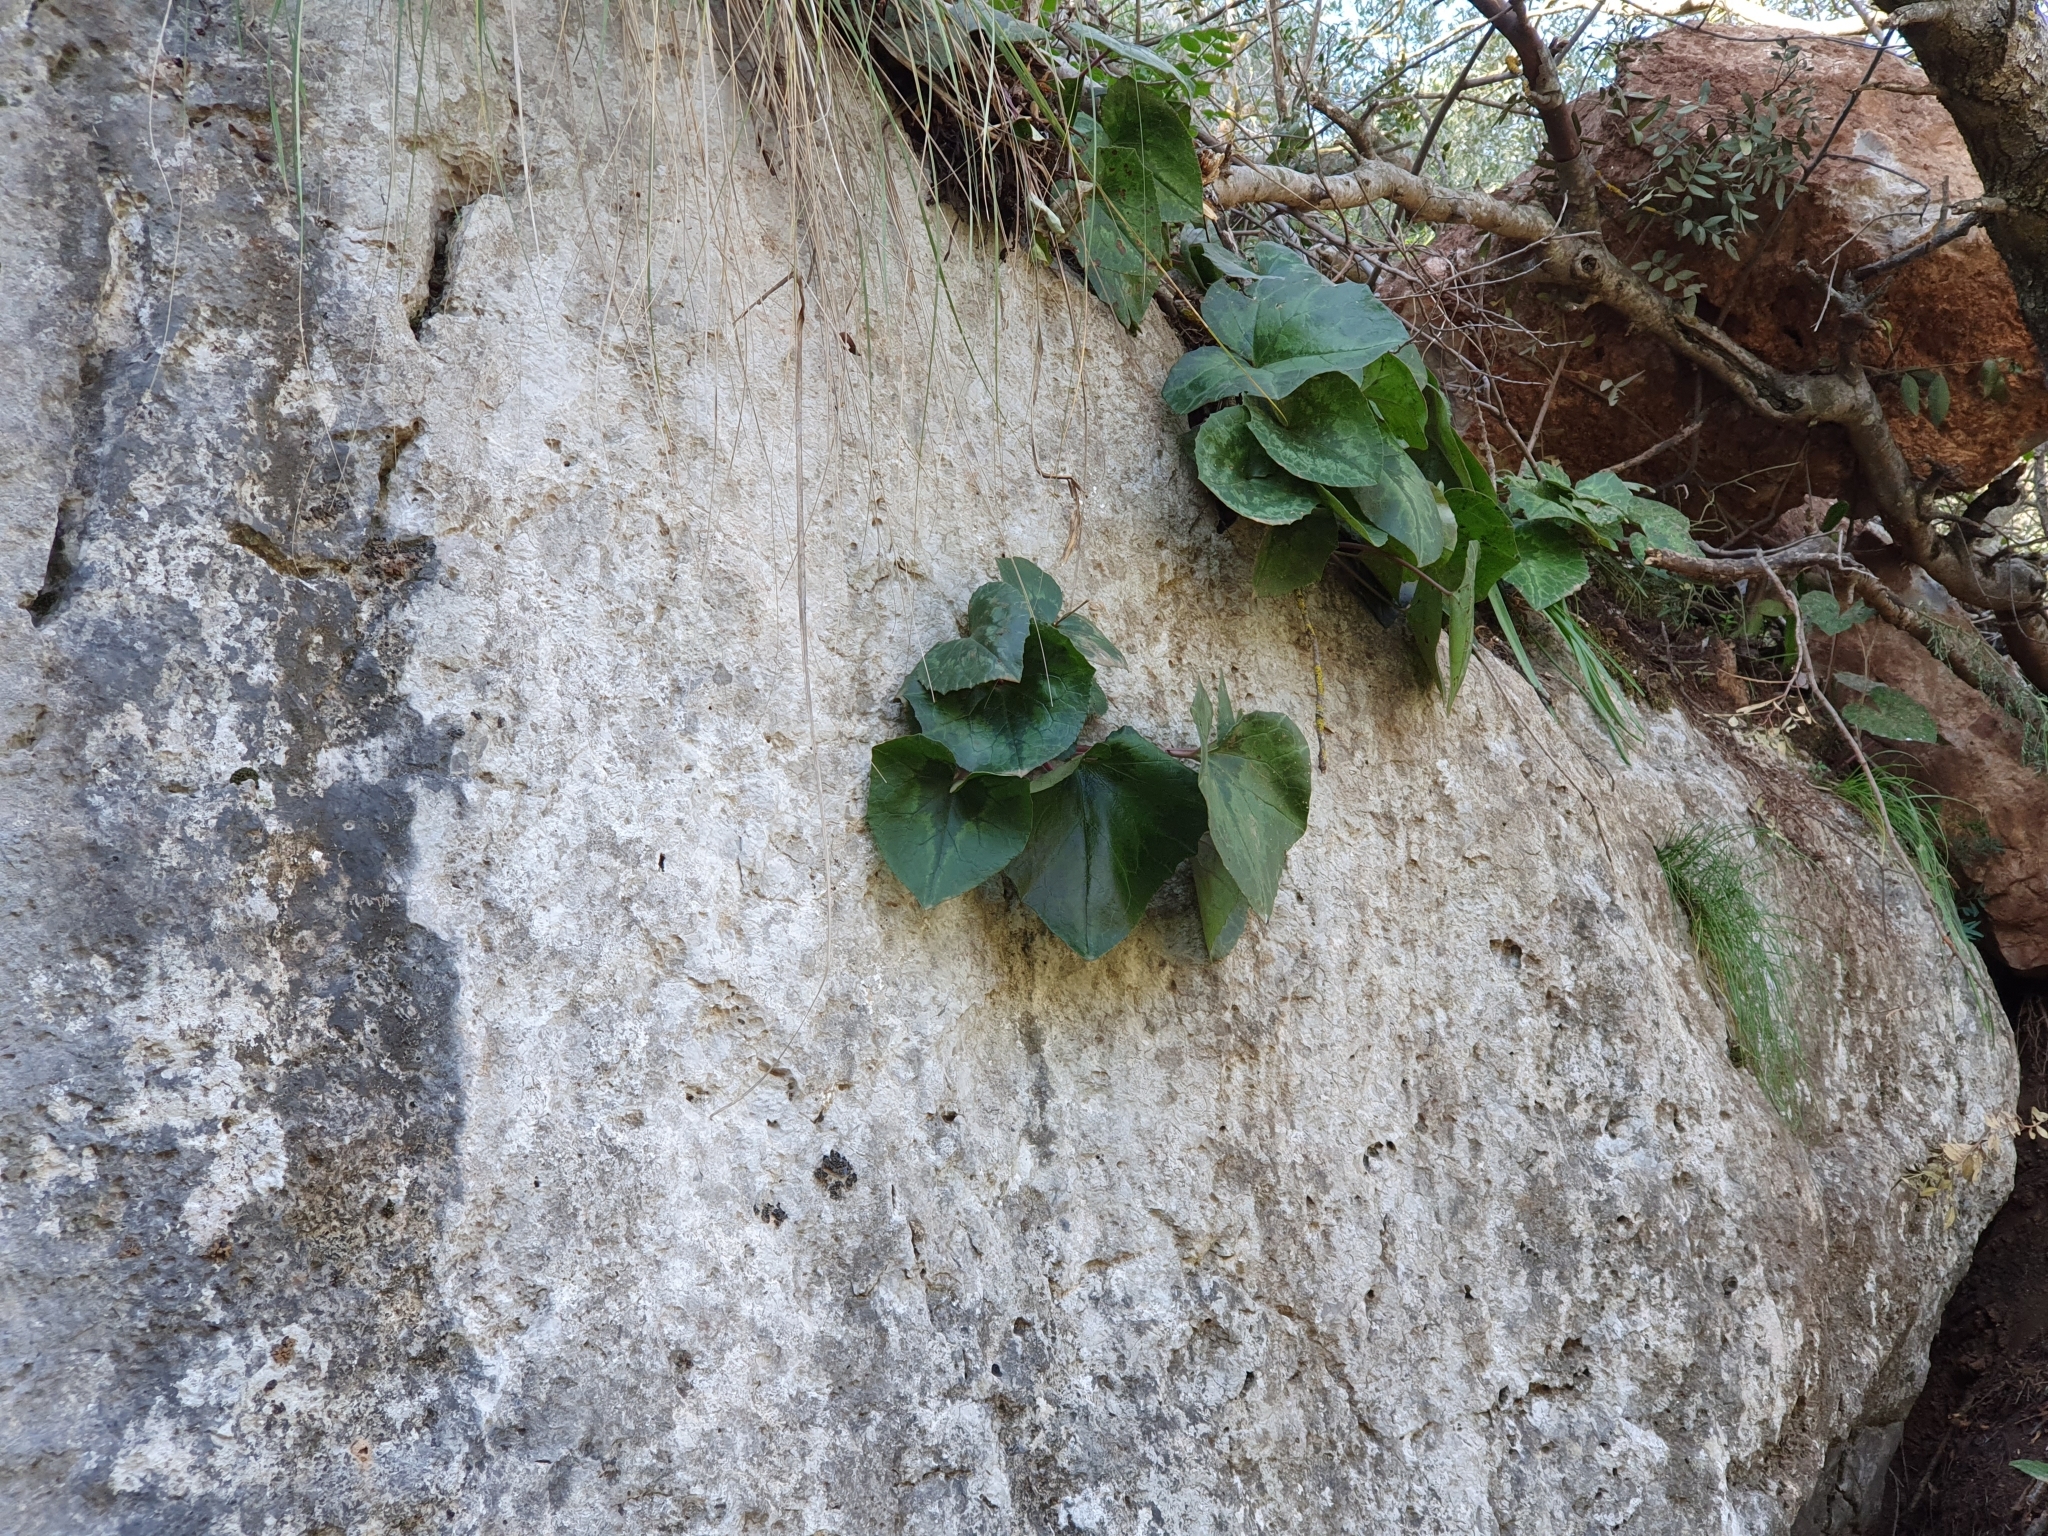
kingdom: Plantae
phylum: Tracheophyta
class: Magnoliopsida
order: Ericales
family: Primulaceae
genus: Cyclamen
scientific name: Cyclamen africanum
